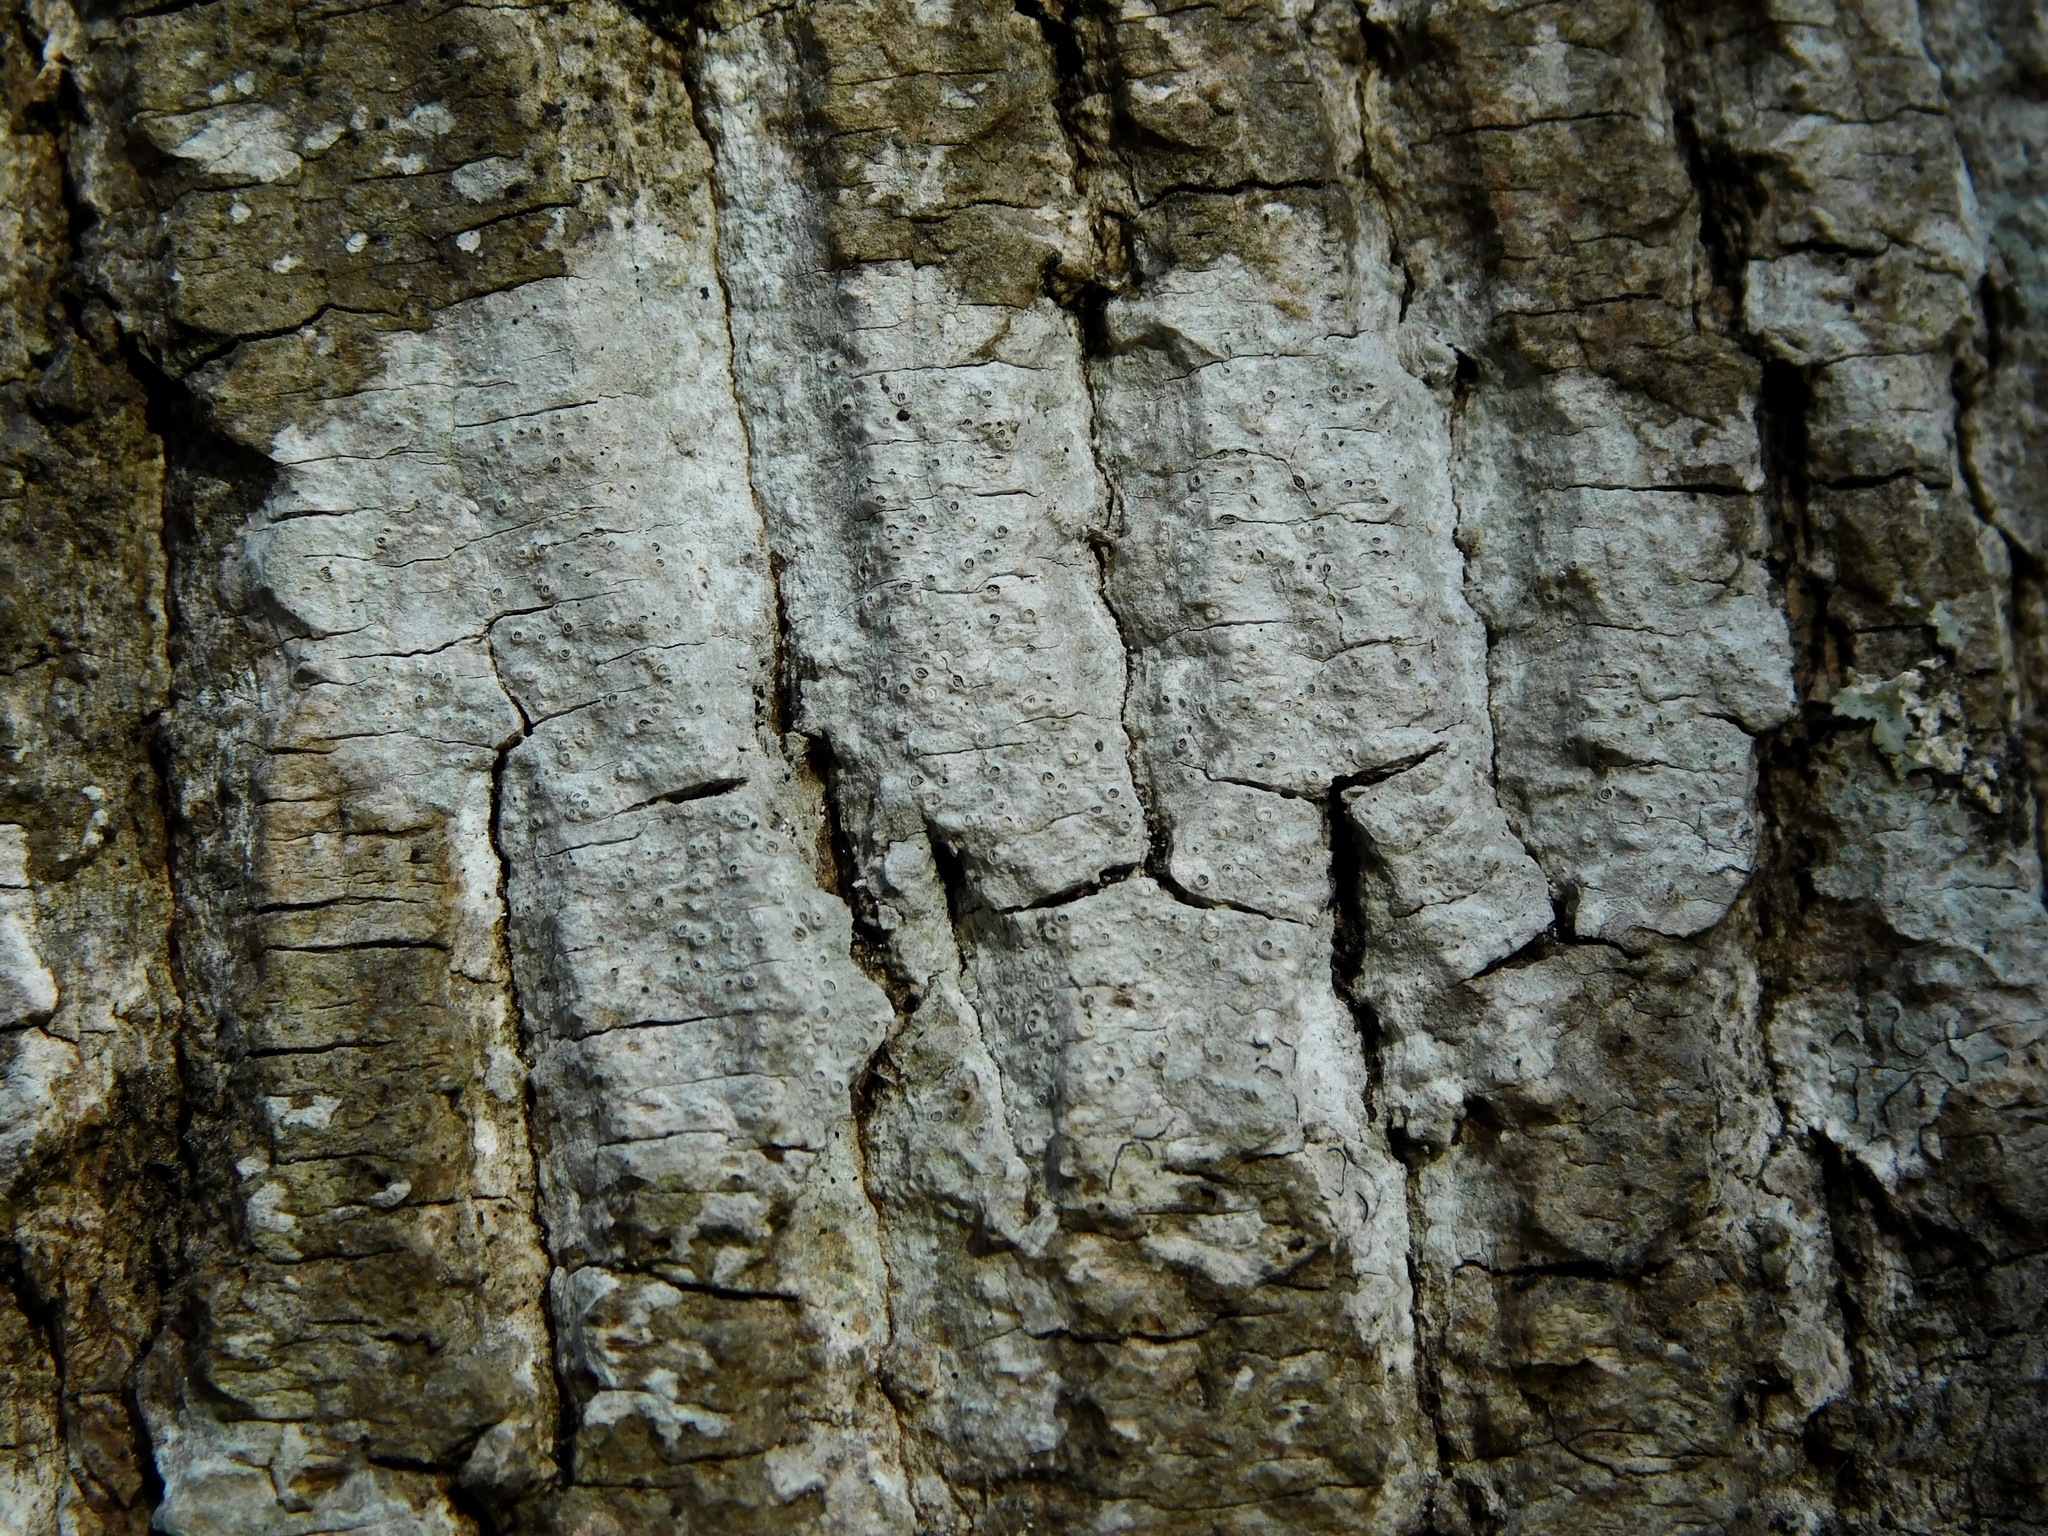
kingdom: Fungi
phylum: Ascomycota
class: Lecanoromycetes
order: Ostropales
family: Graphidaceae
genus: Thelotrema
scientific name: Thelotrema subtile
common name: Delicate barnacles lichen
